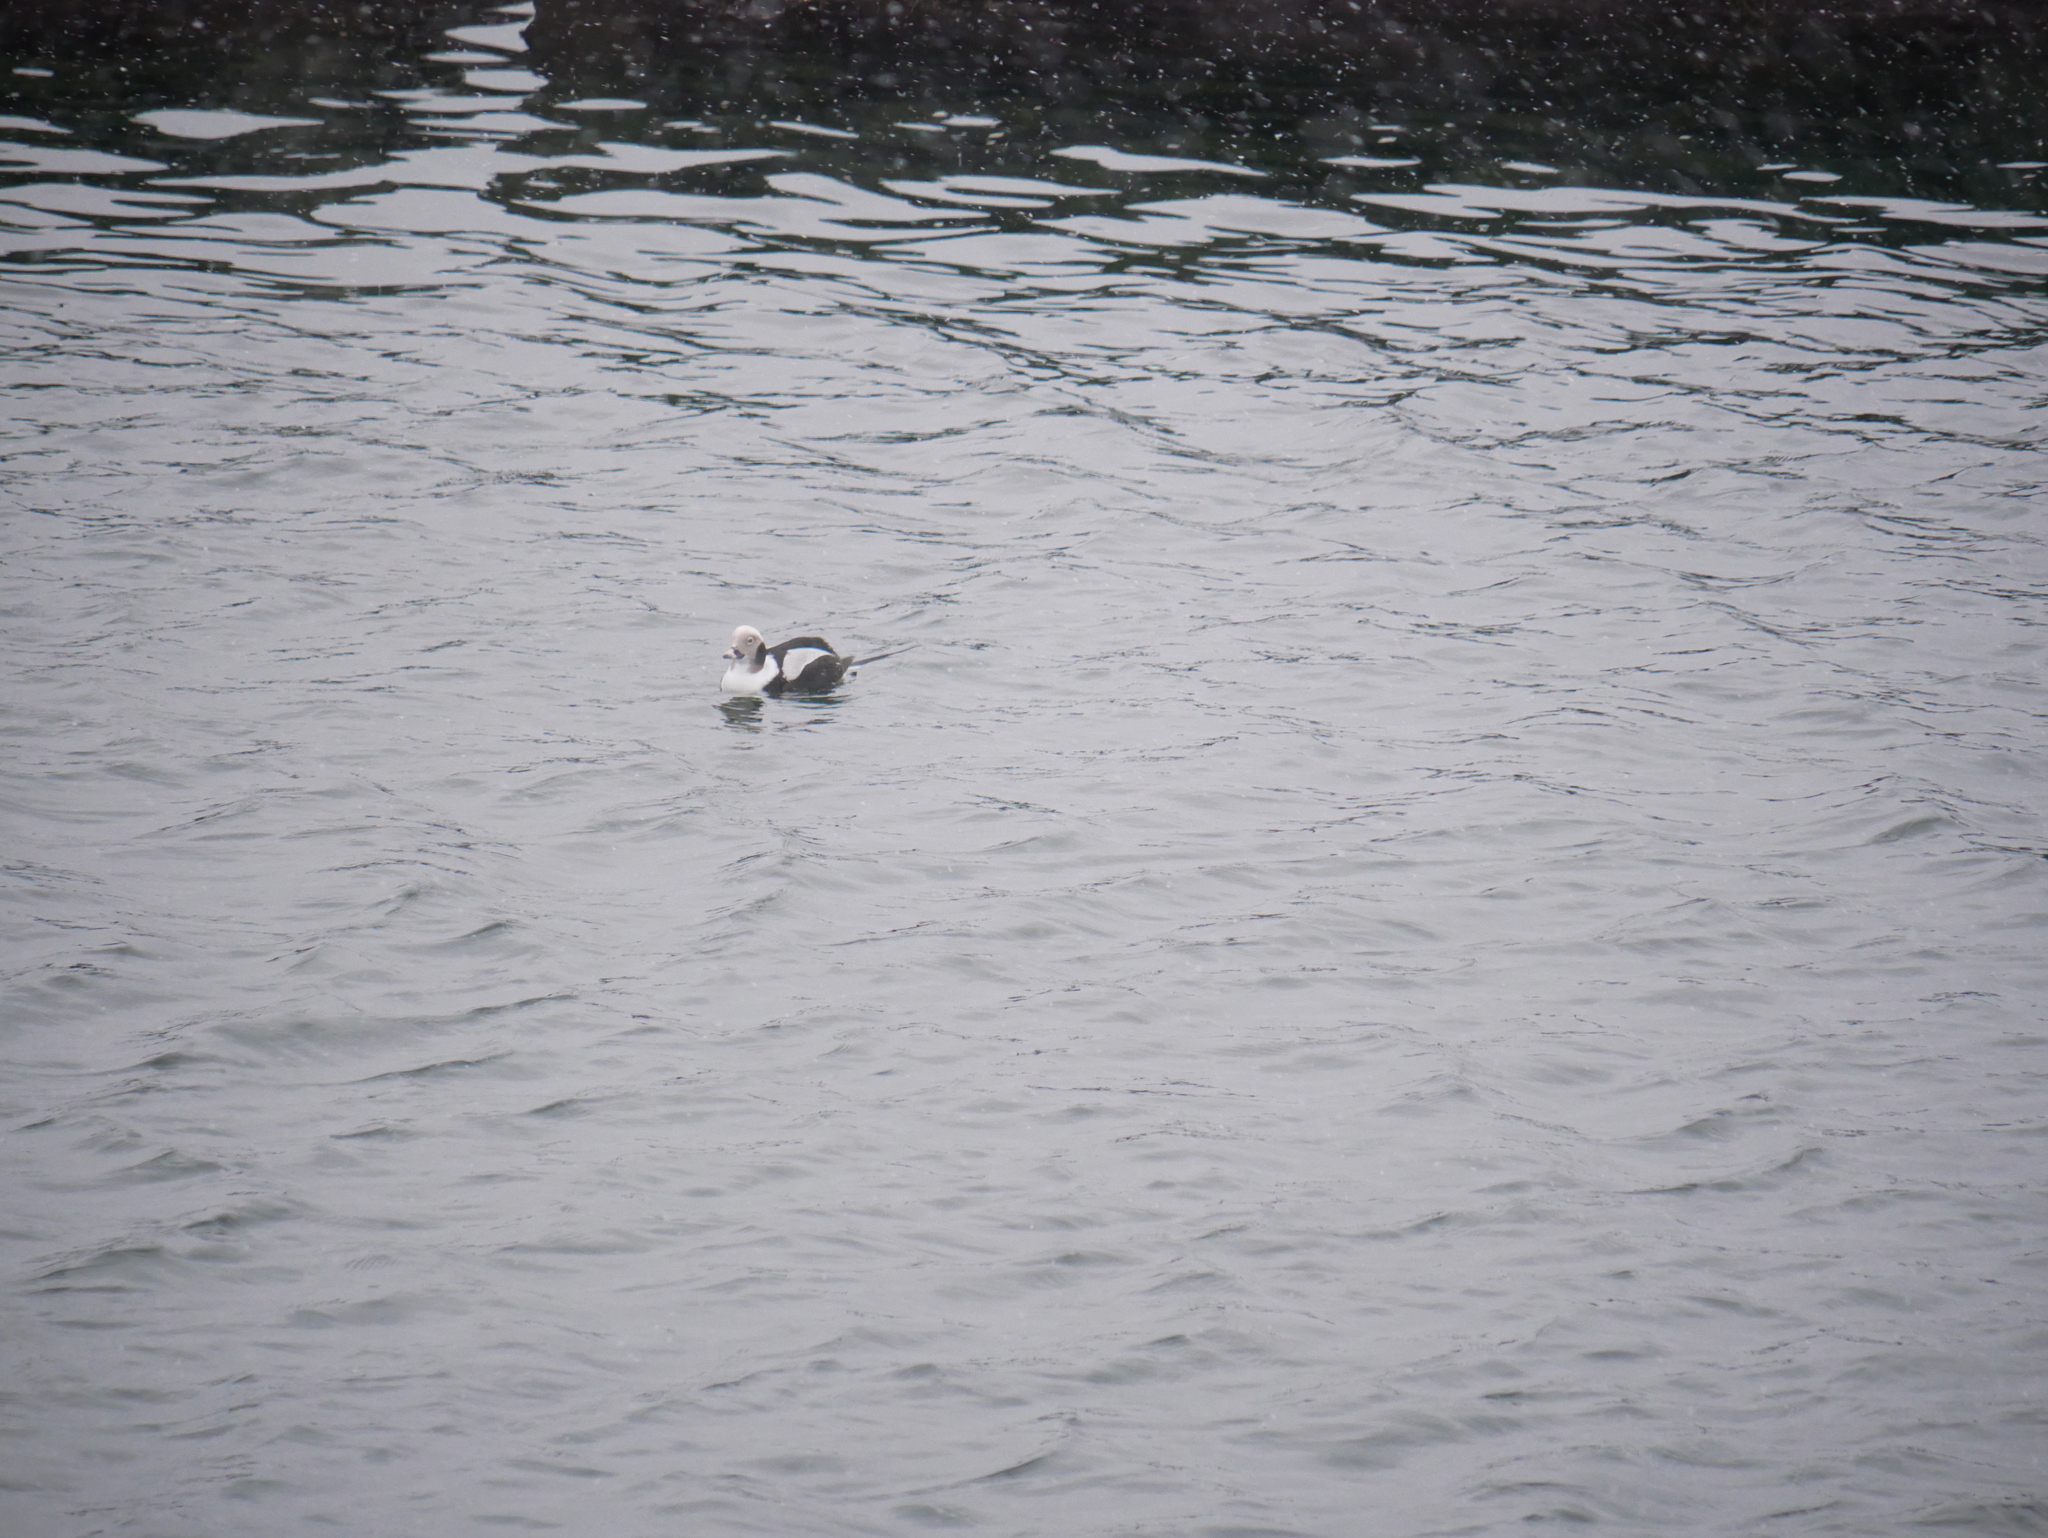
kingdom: Animalia
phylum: Chordata
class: Aves
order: Anseriformes
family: Anatidae
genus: Clangula
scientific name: Clangula hyemalis
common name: Long-tailed duck
